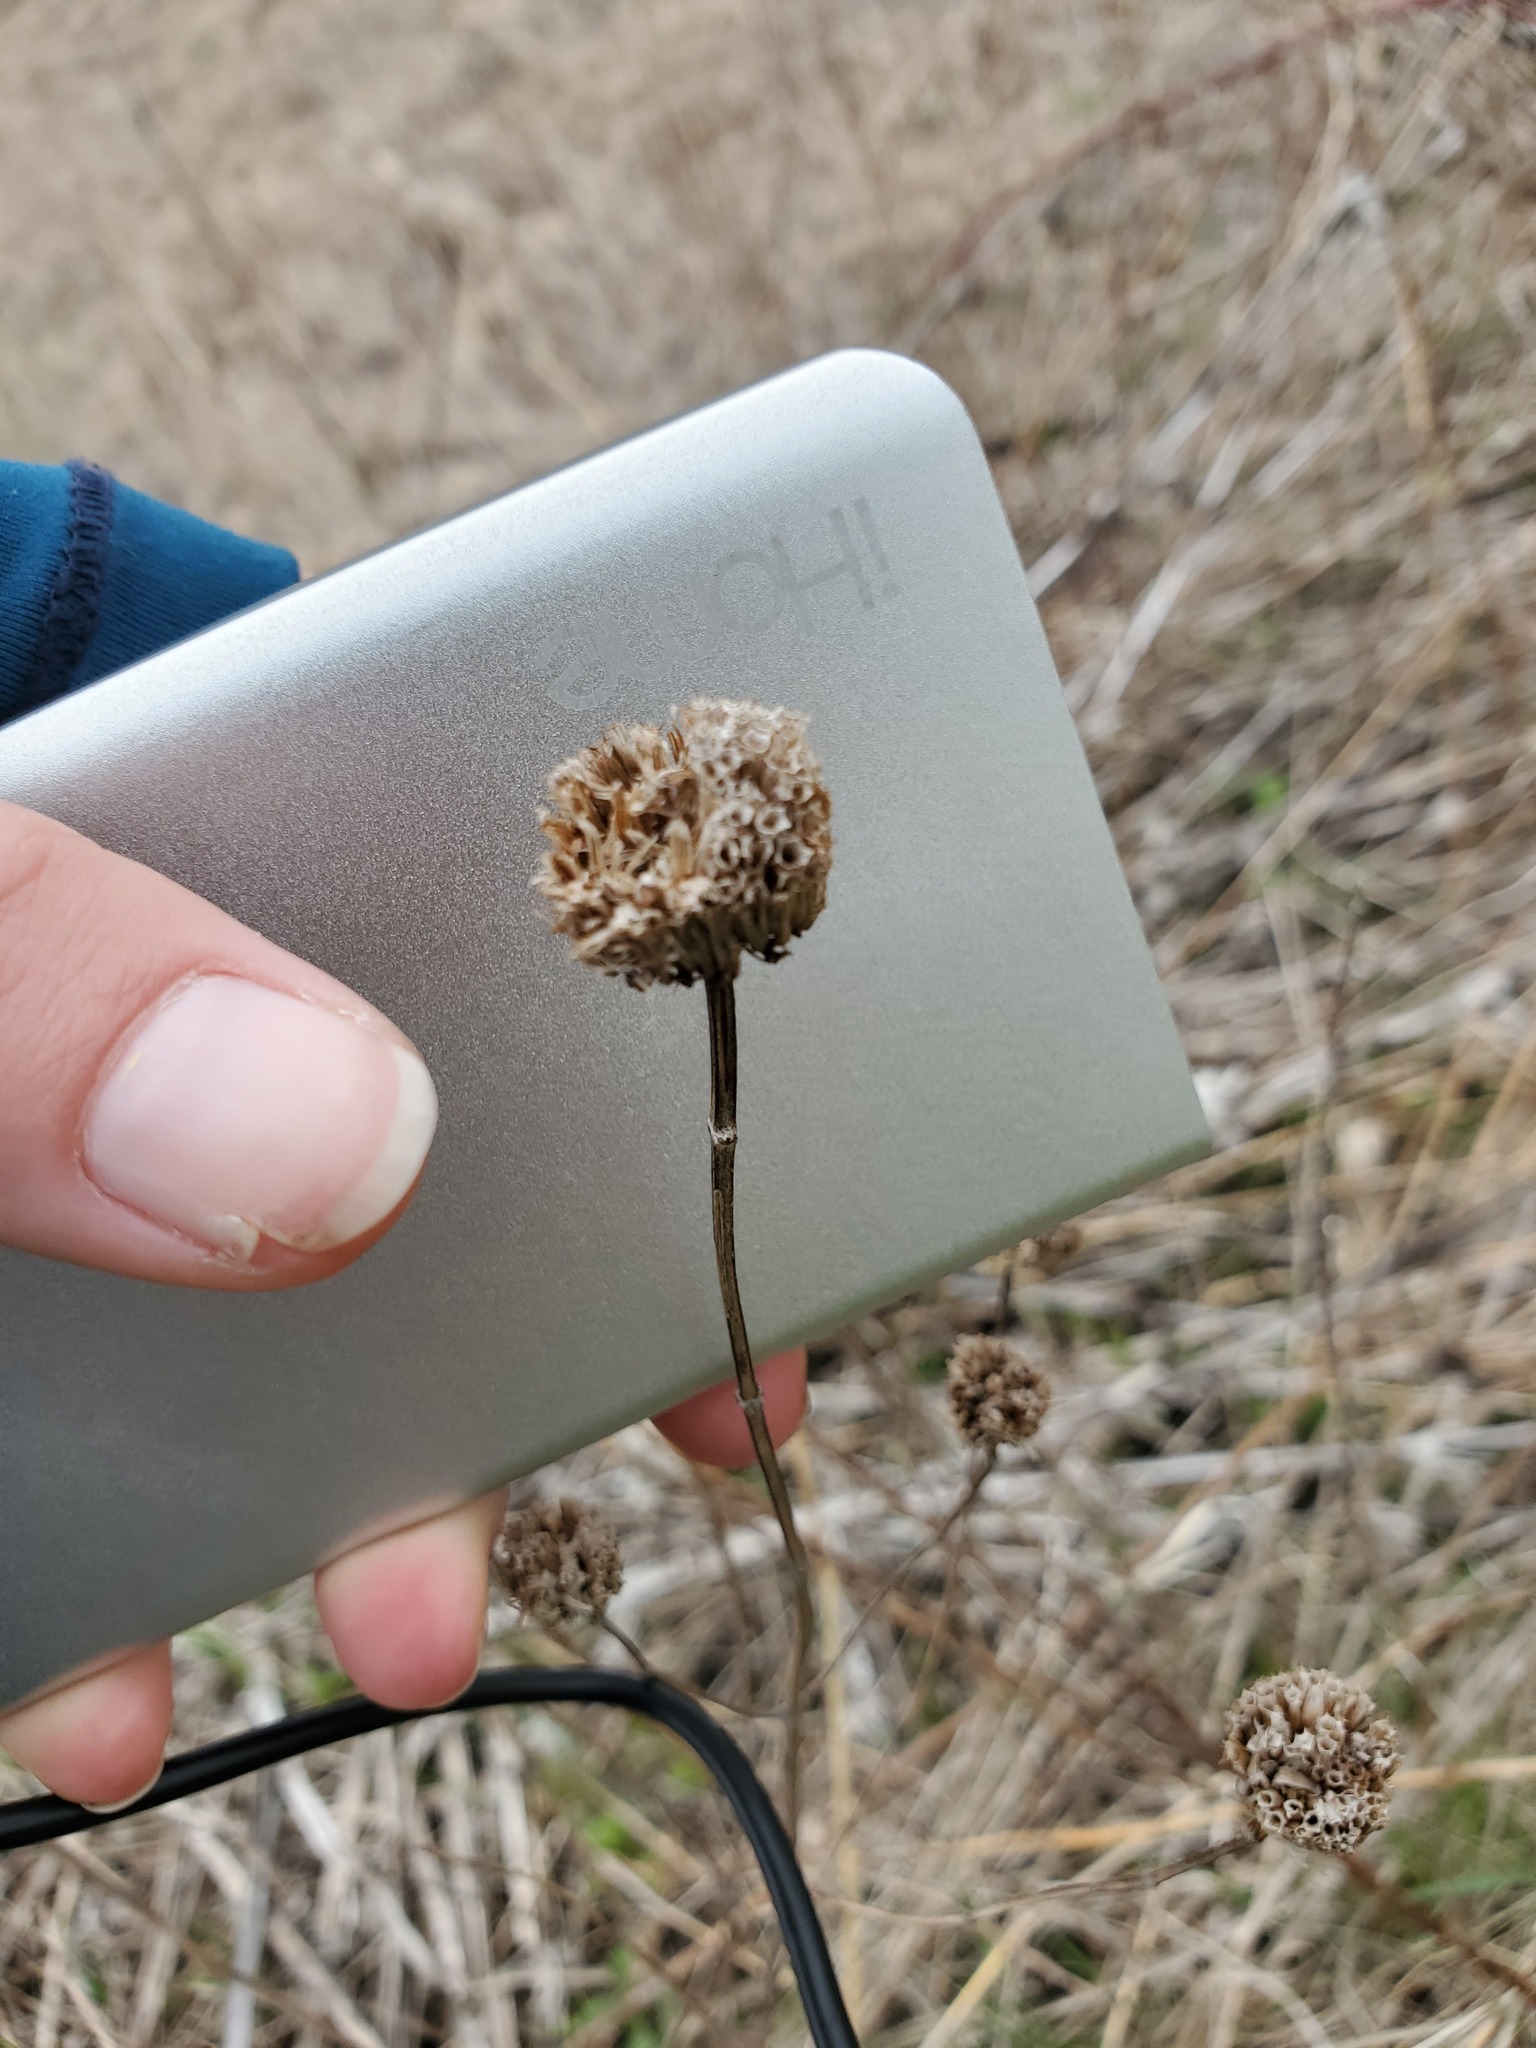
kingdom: Plantae
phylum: Tracheophyta
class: Magnoliopsida
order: Lamiales
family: Lamiaceae
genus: Monarda
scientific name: Monarda fistulosa
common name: Purple beebalm
